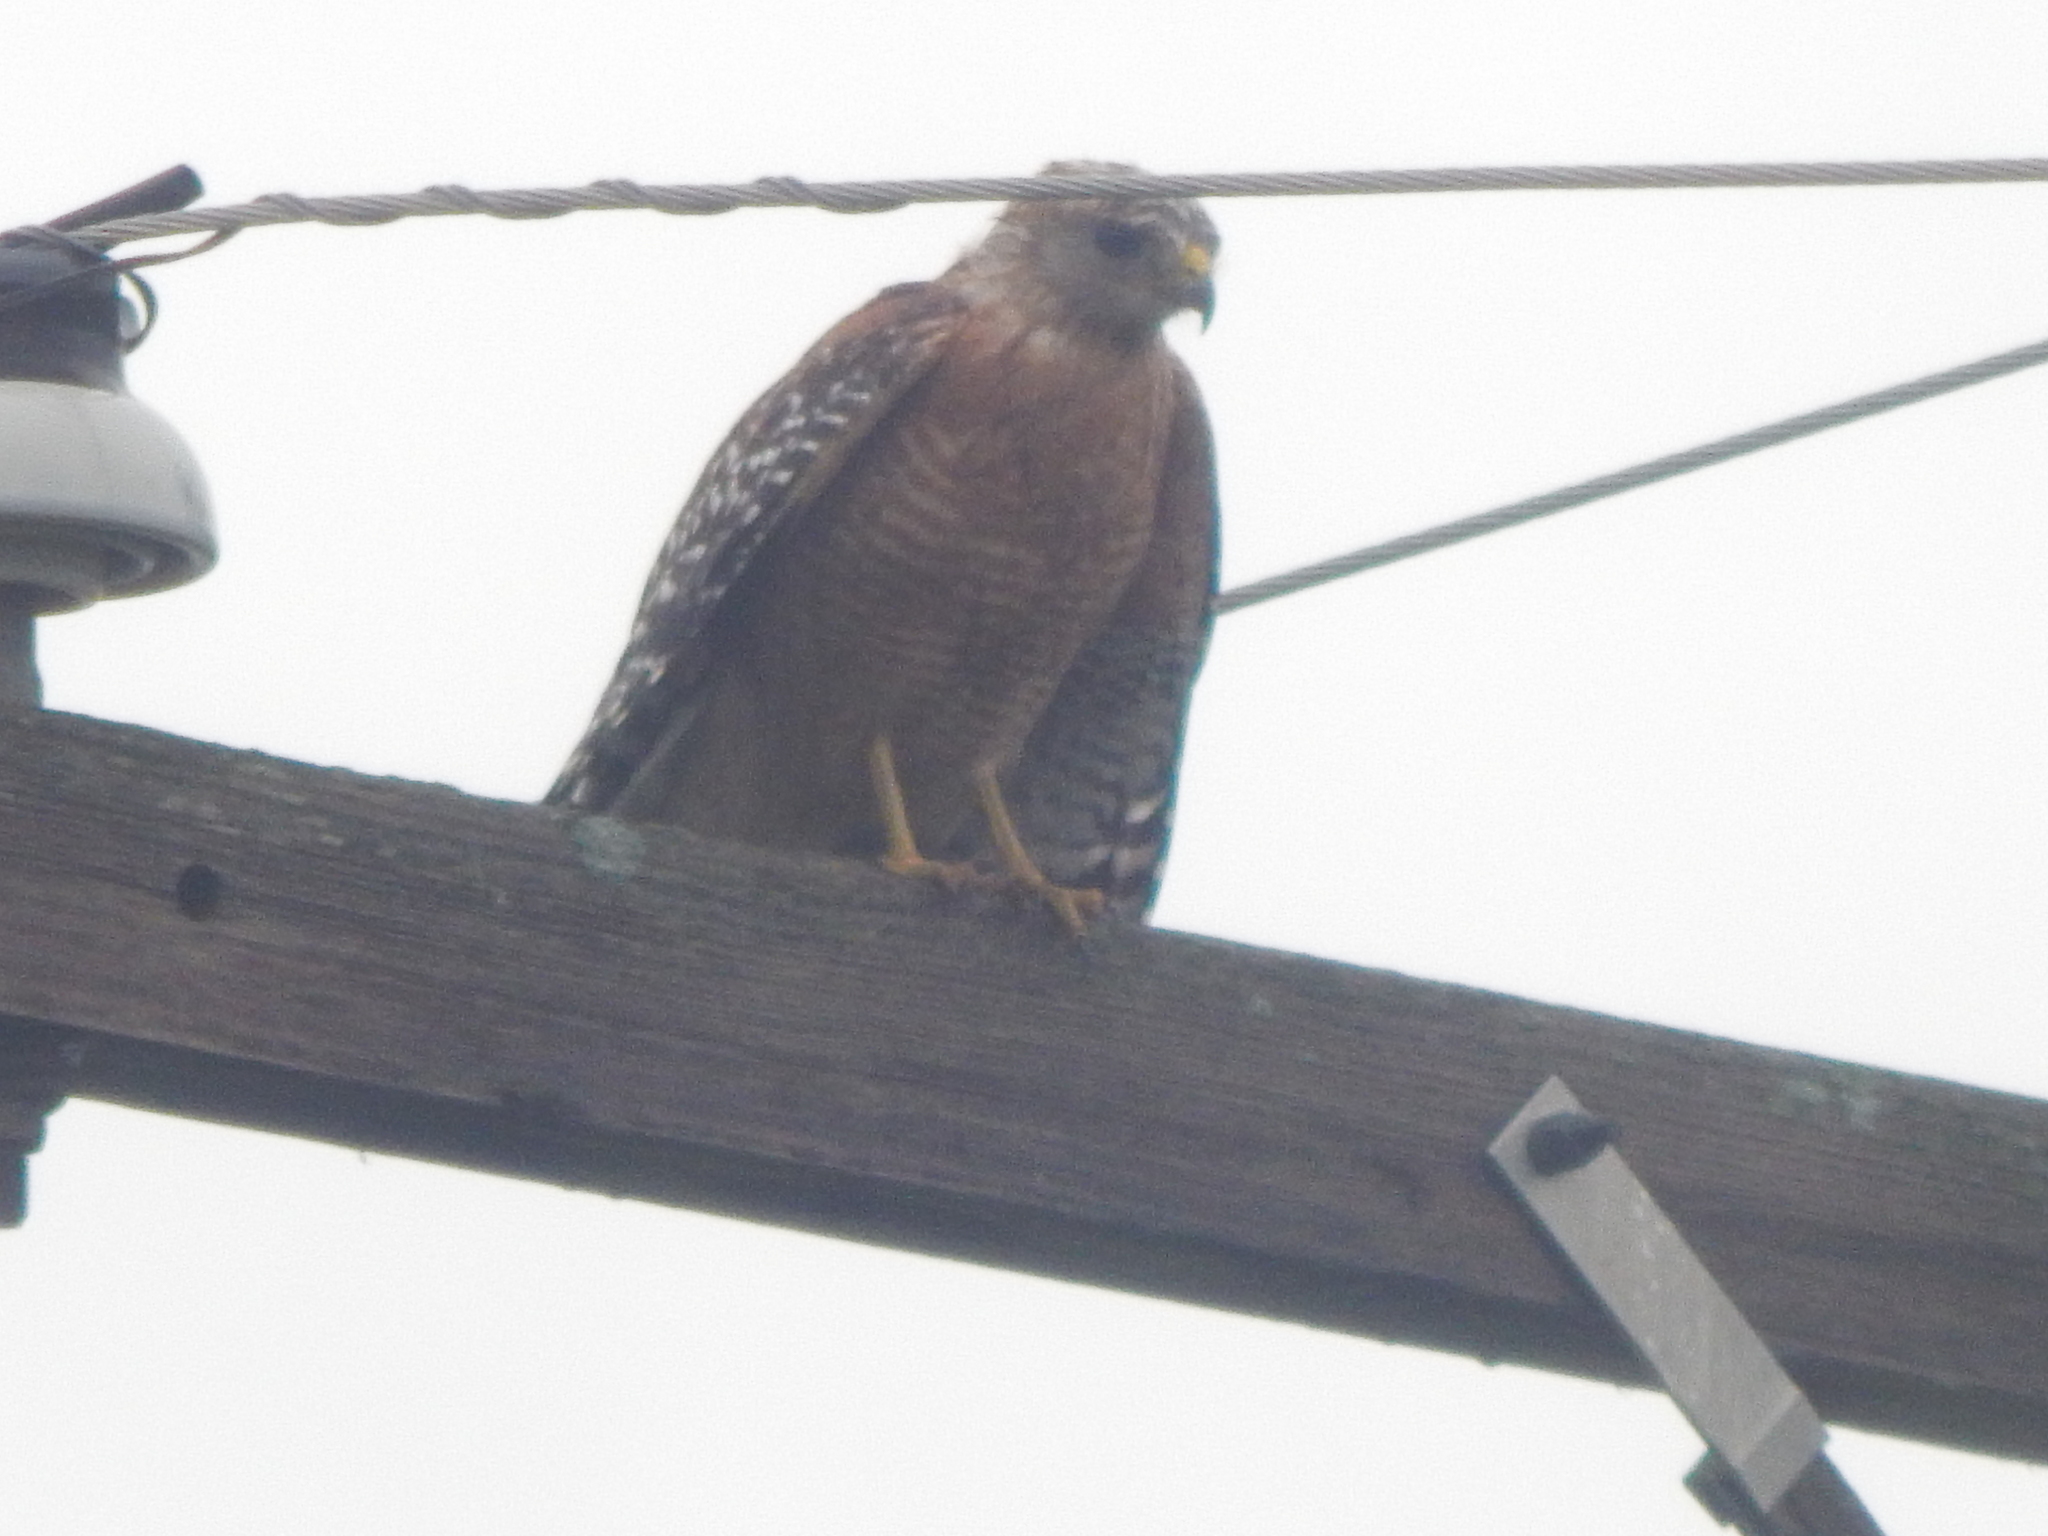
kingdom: Animalia
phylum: Chordata
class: Aves
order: Accipitriformes
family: Accipitridae
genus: Buteo
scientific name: Buteo lineatus
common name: Red-shouldered hawk
